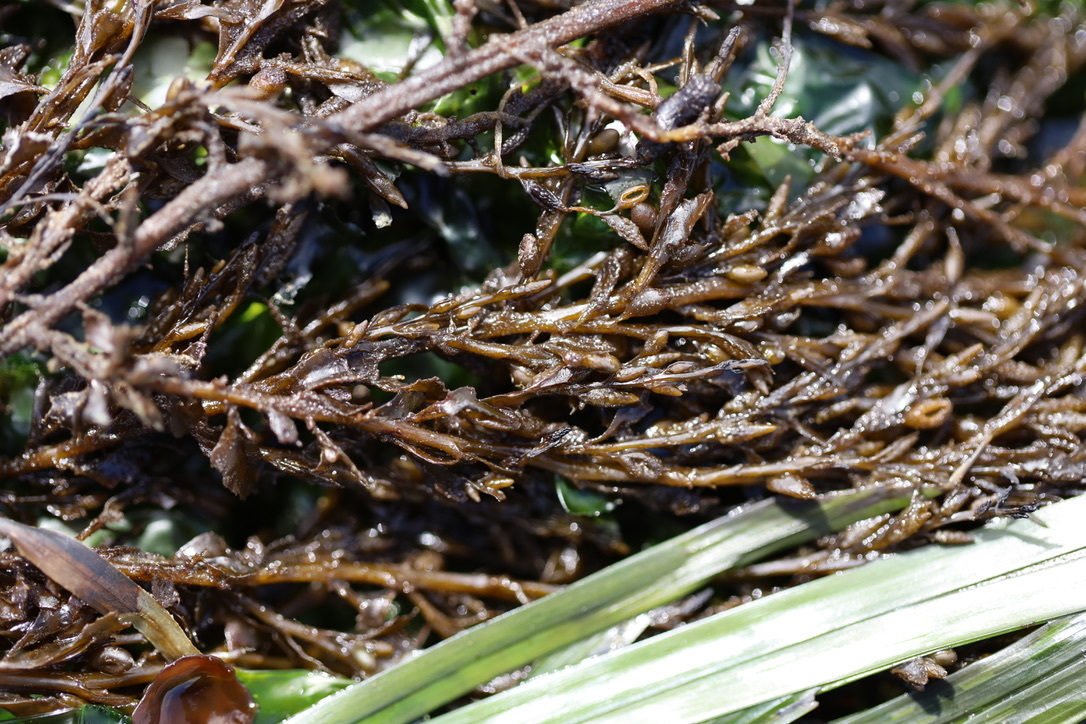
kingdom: Chromista
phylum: Ochrophyta
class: Phaeophyceae
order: Fucales
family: Sargassaceae
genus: Sargassum
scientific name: Sargassum muticum
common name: Japweed
